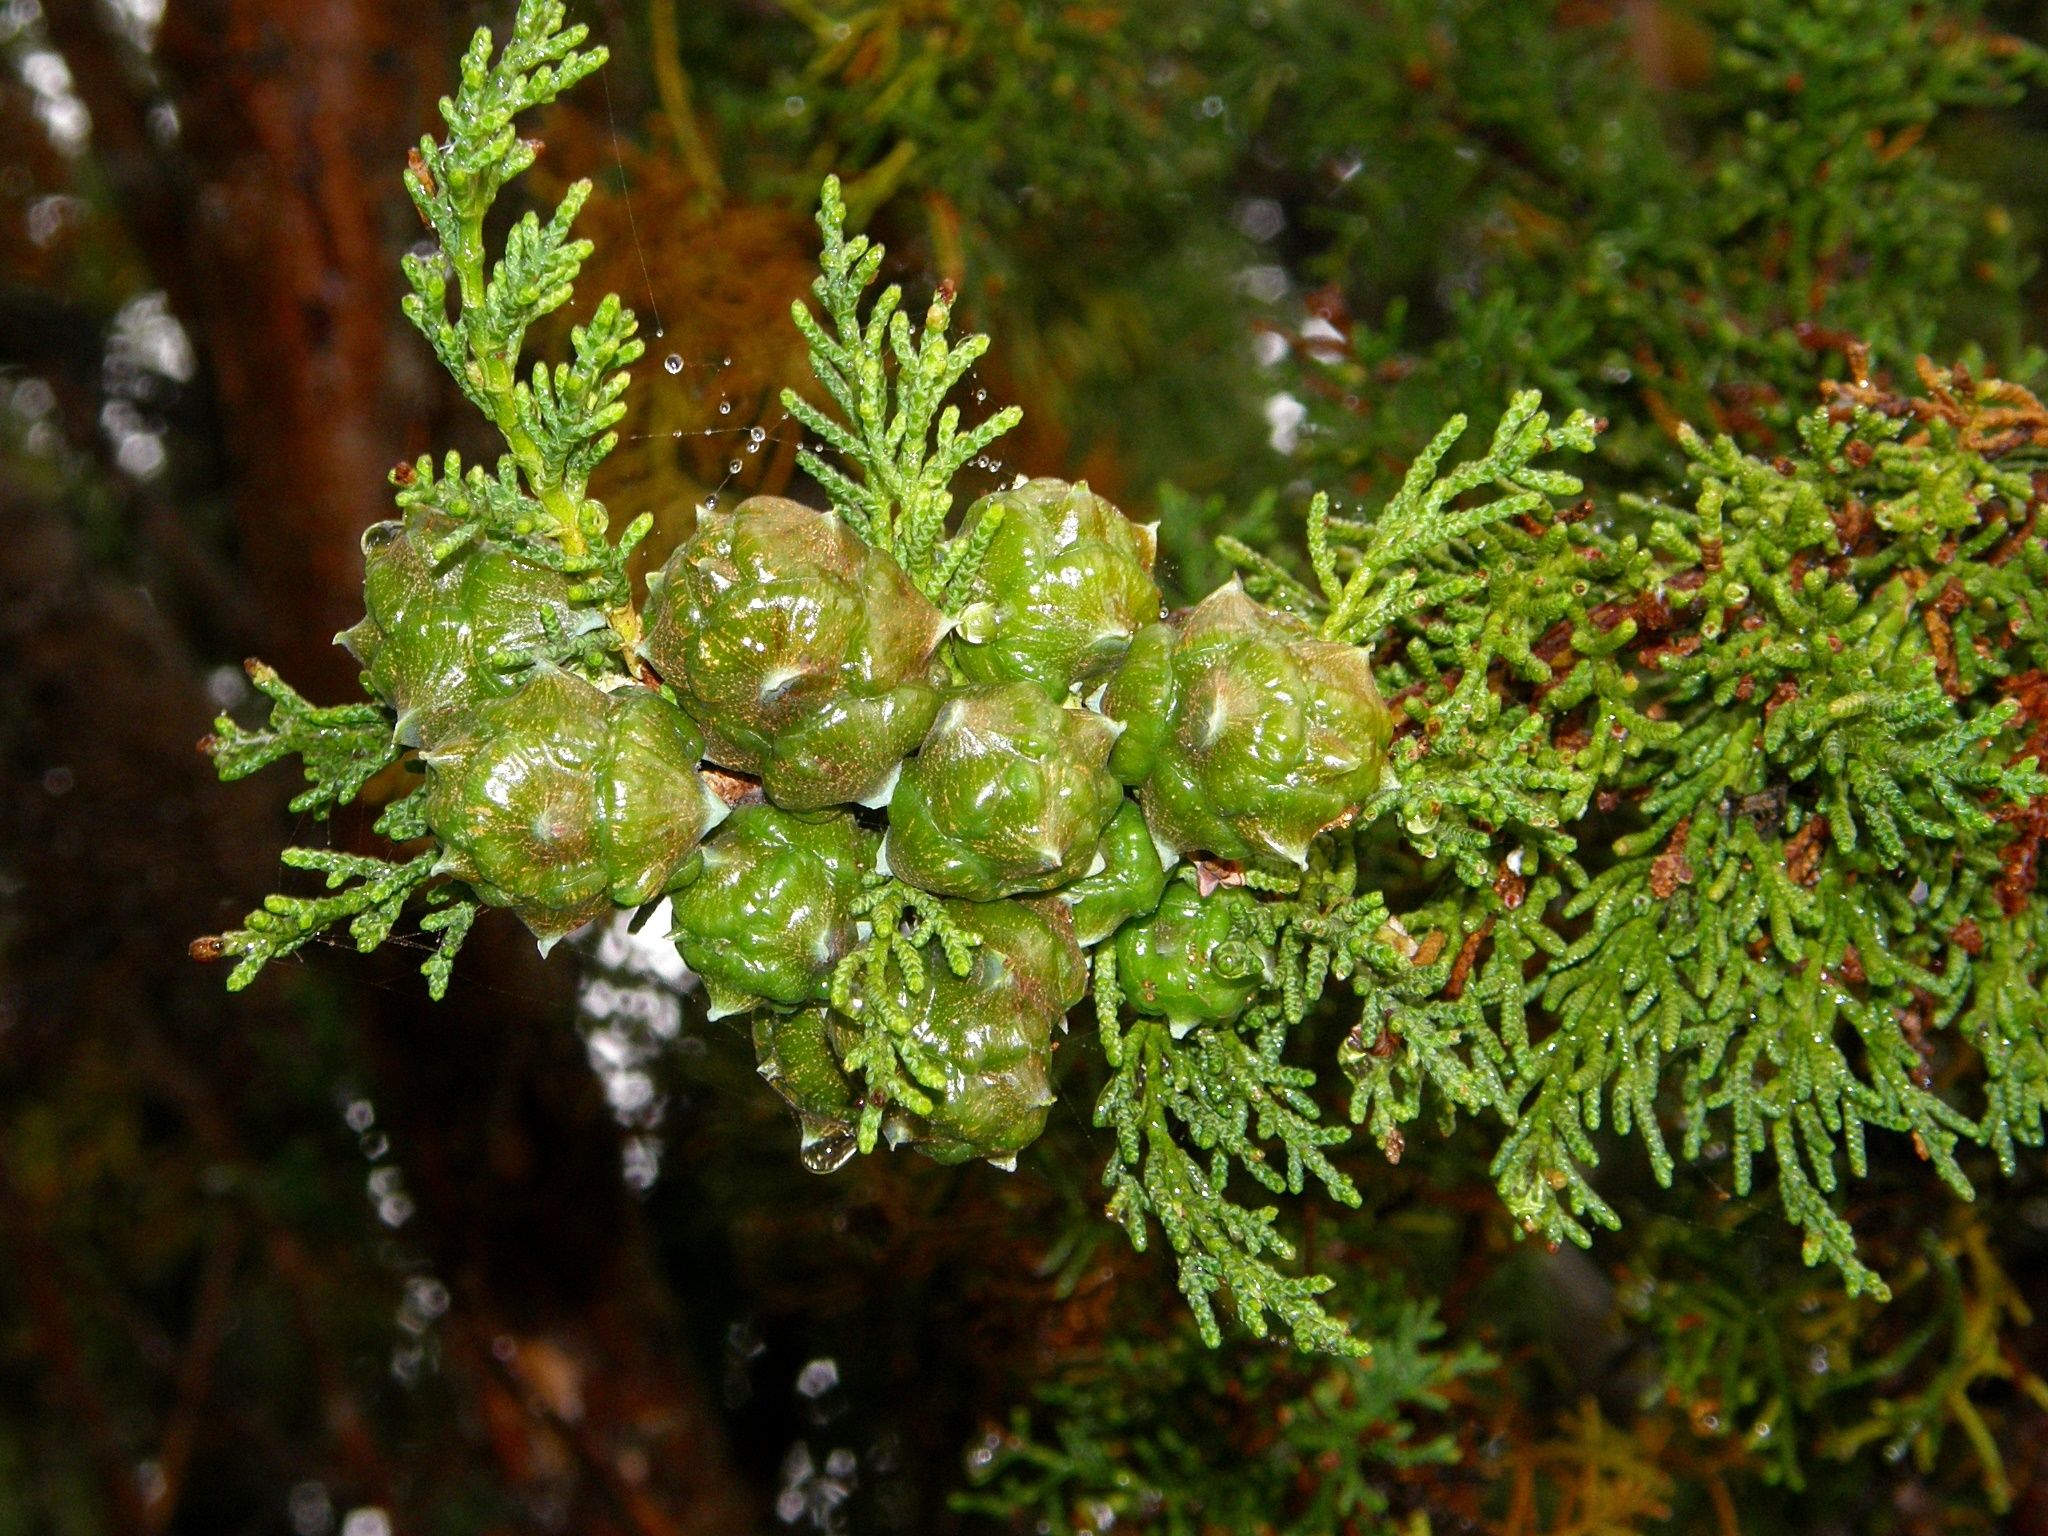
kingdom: Plantae
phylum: Tracheophyta
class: Pinopsida
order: Pinales
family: Cupressaceae
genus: Cupressus
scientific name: Cupressus macrocarpa
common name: Monterey cypress
